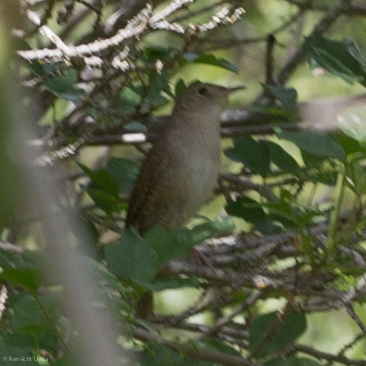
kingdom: Animalia
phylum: Chordata
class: Aves
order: Passeriformes
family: Troglodytidae
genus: Troglodytes
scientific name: Troglodytes aedon
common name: House wren
